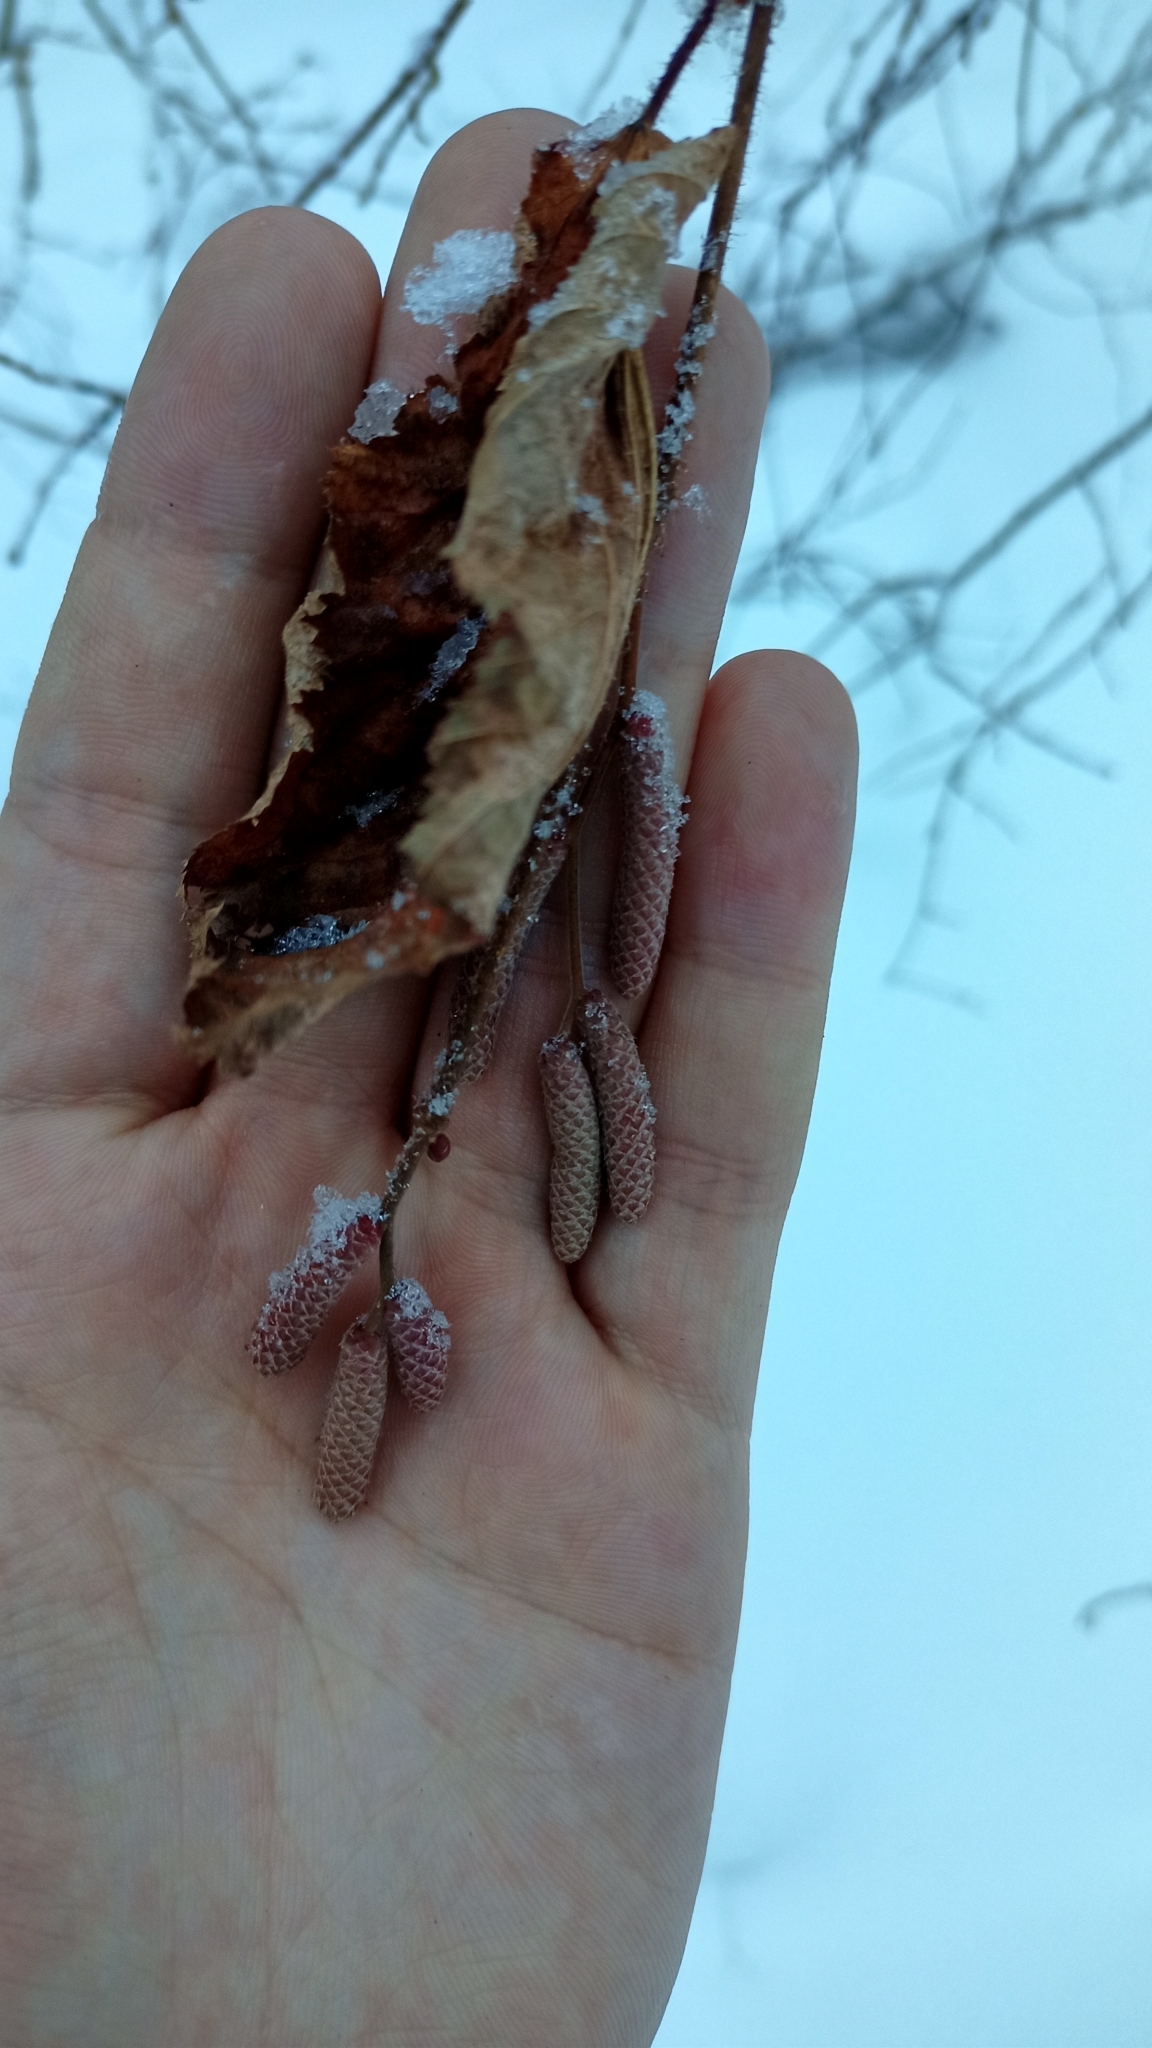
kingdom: Plantae
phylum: Tracheophyta
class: Magnoliopsida
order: Fagales
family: Betulaceae
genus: Corylus
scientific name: Corylus avellana
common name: European hazel
